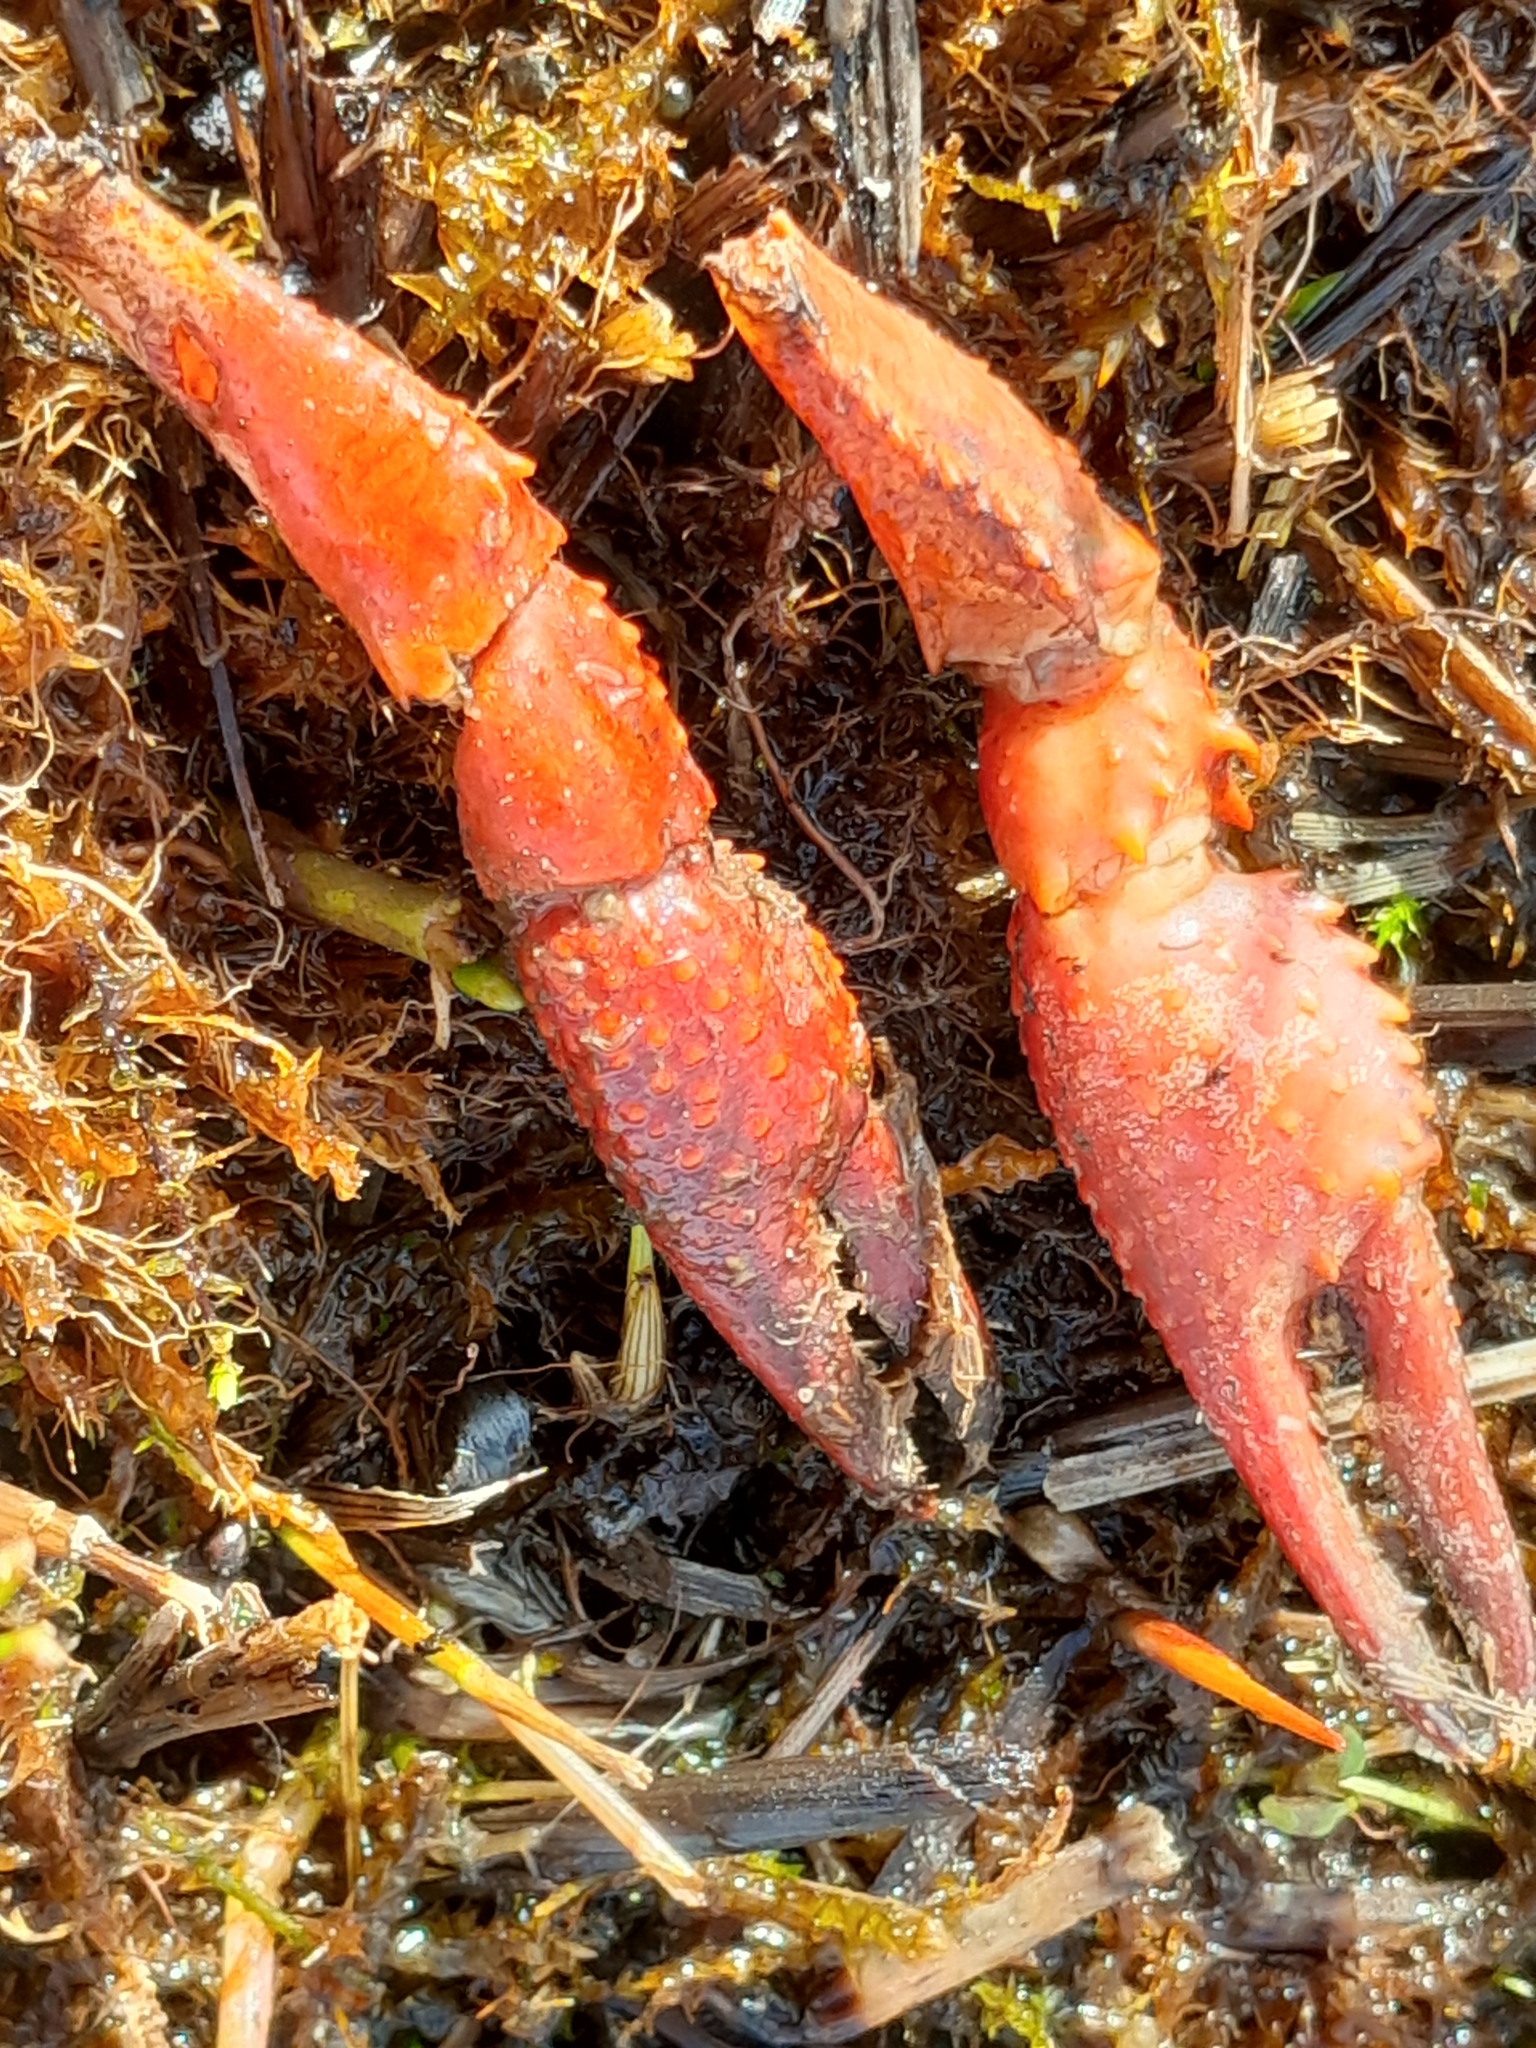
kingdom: Animalia
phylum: Arthropoda
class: Malacostraca
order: Decapoda
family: Cambaridae
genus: Procambarus
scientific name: Procambarus clarkii
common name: Red swamp crayfish
